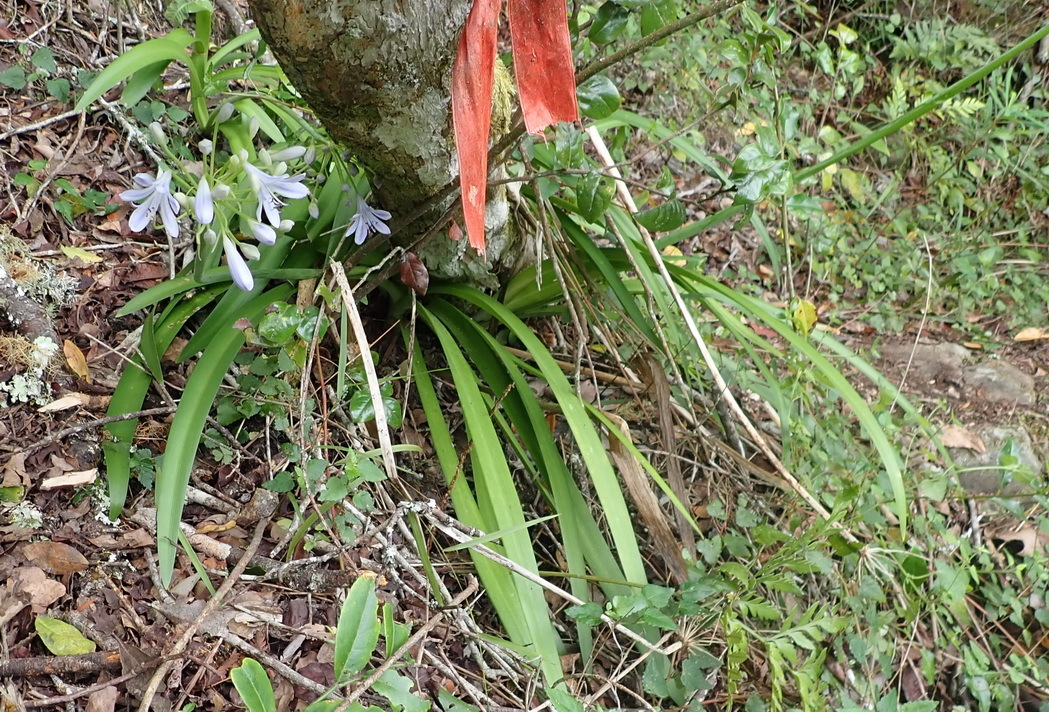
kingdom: Plantae
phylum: Tracheophyta
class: Liliopsida
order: Asparagales
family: Amaryllidaceae
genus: Agapanthus
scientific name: Agapanthus praecox
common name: African-lily
